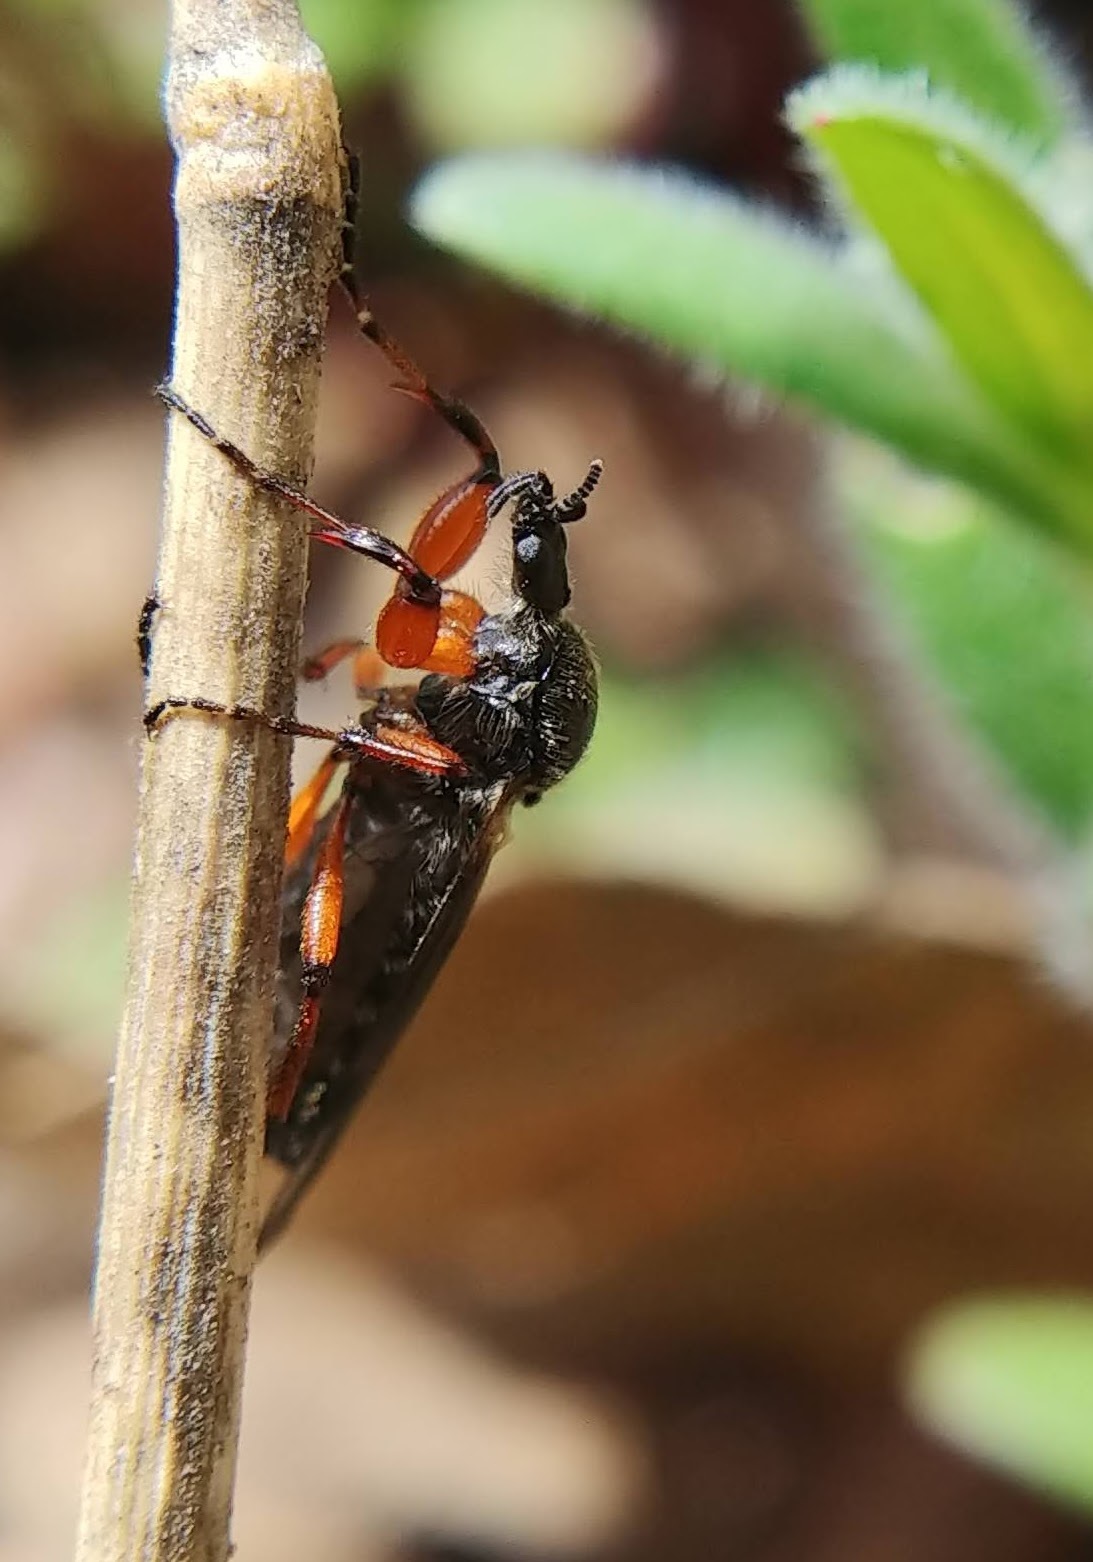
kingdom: Animalia
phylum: Arthropoda
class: Insecta
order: Diptera
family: Bibionidae
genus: Bibio
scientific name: Bibio
